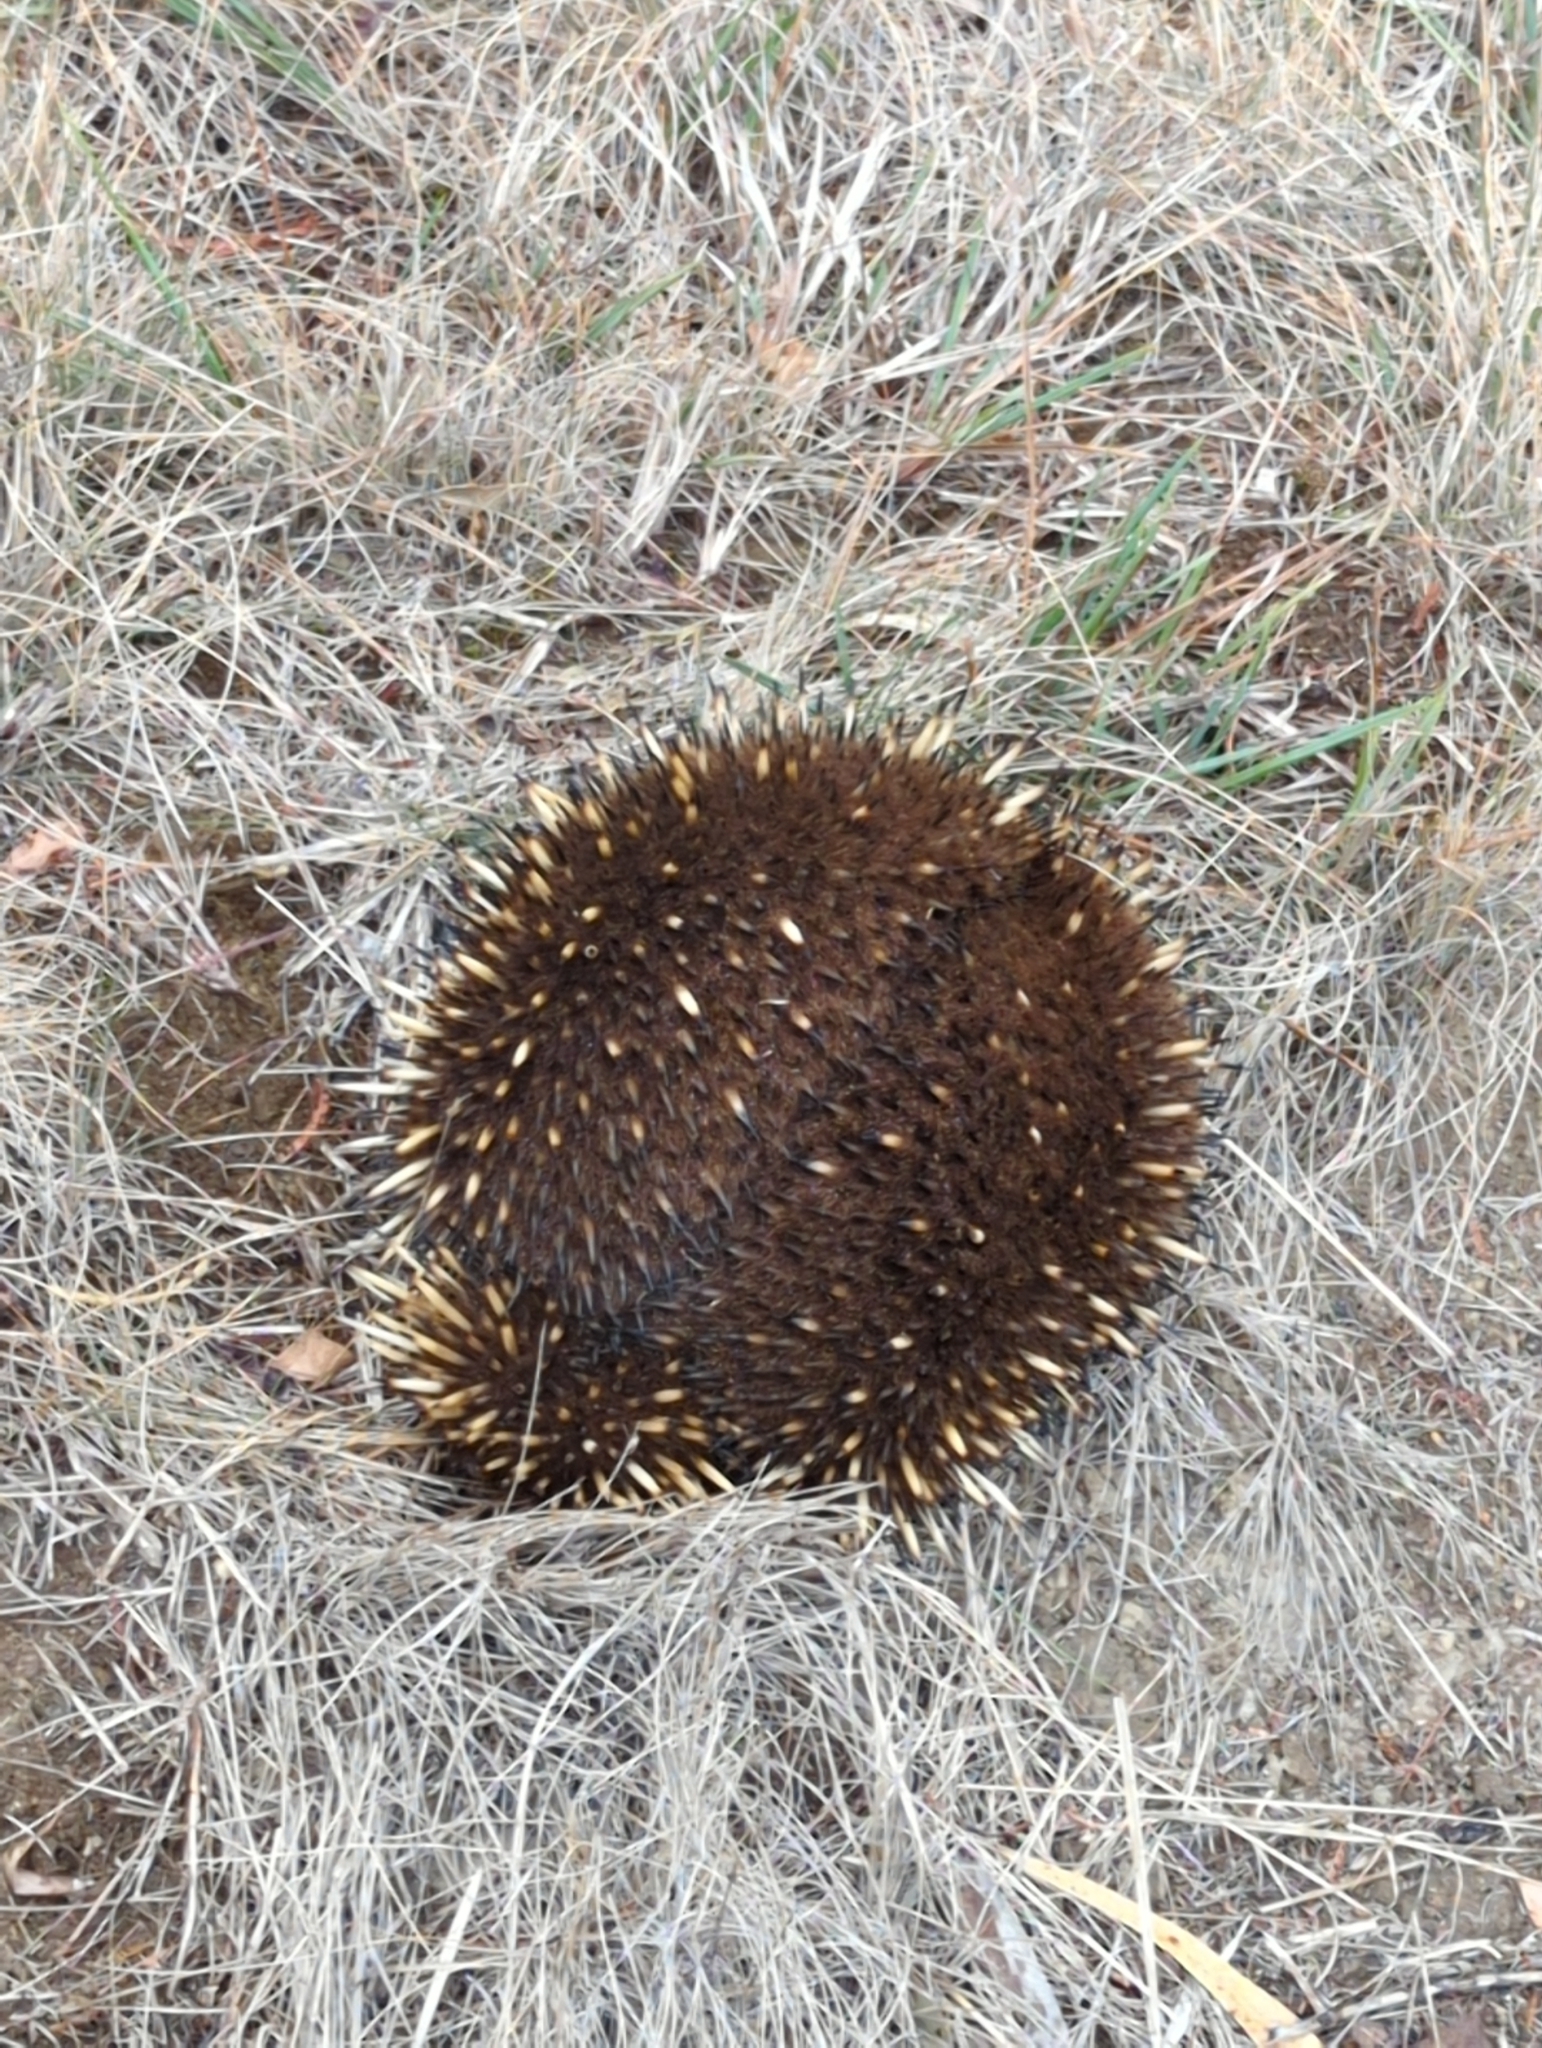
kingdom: Animalia
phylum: Chordata
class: Mammalia
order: Monotremata
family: Tachyglossidae
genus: Tachyglossus
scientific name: Tachyglossus aculeatus
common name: Short-beaked echidna
